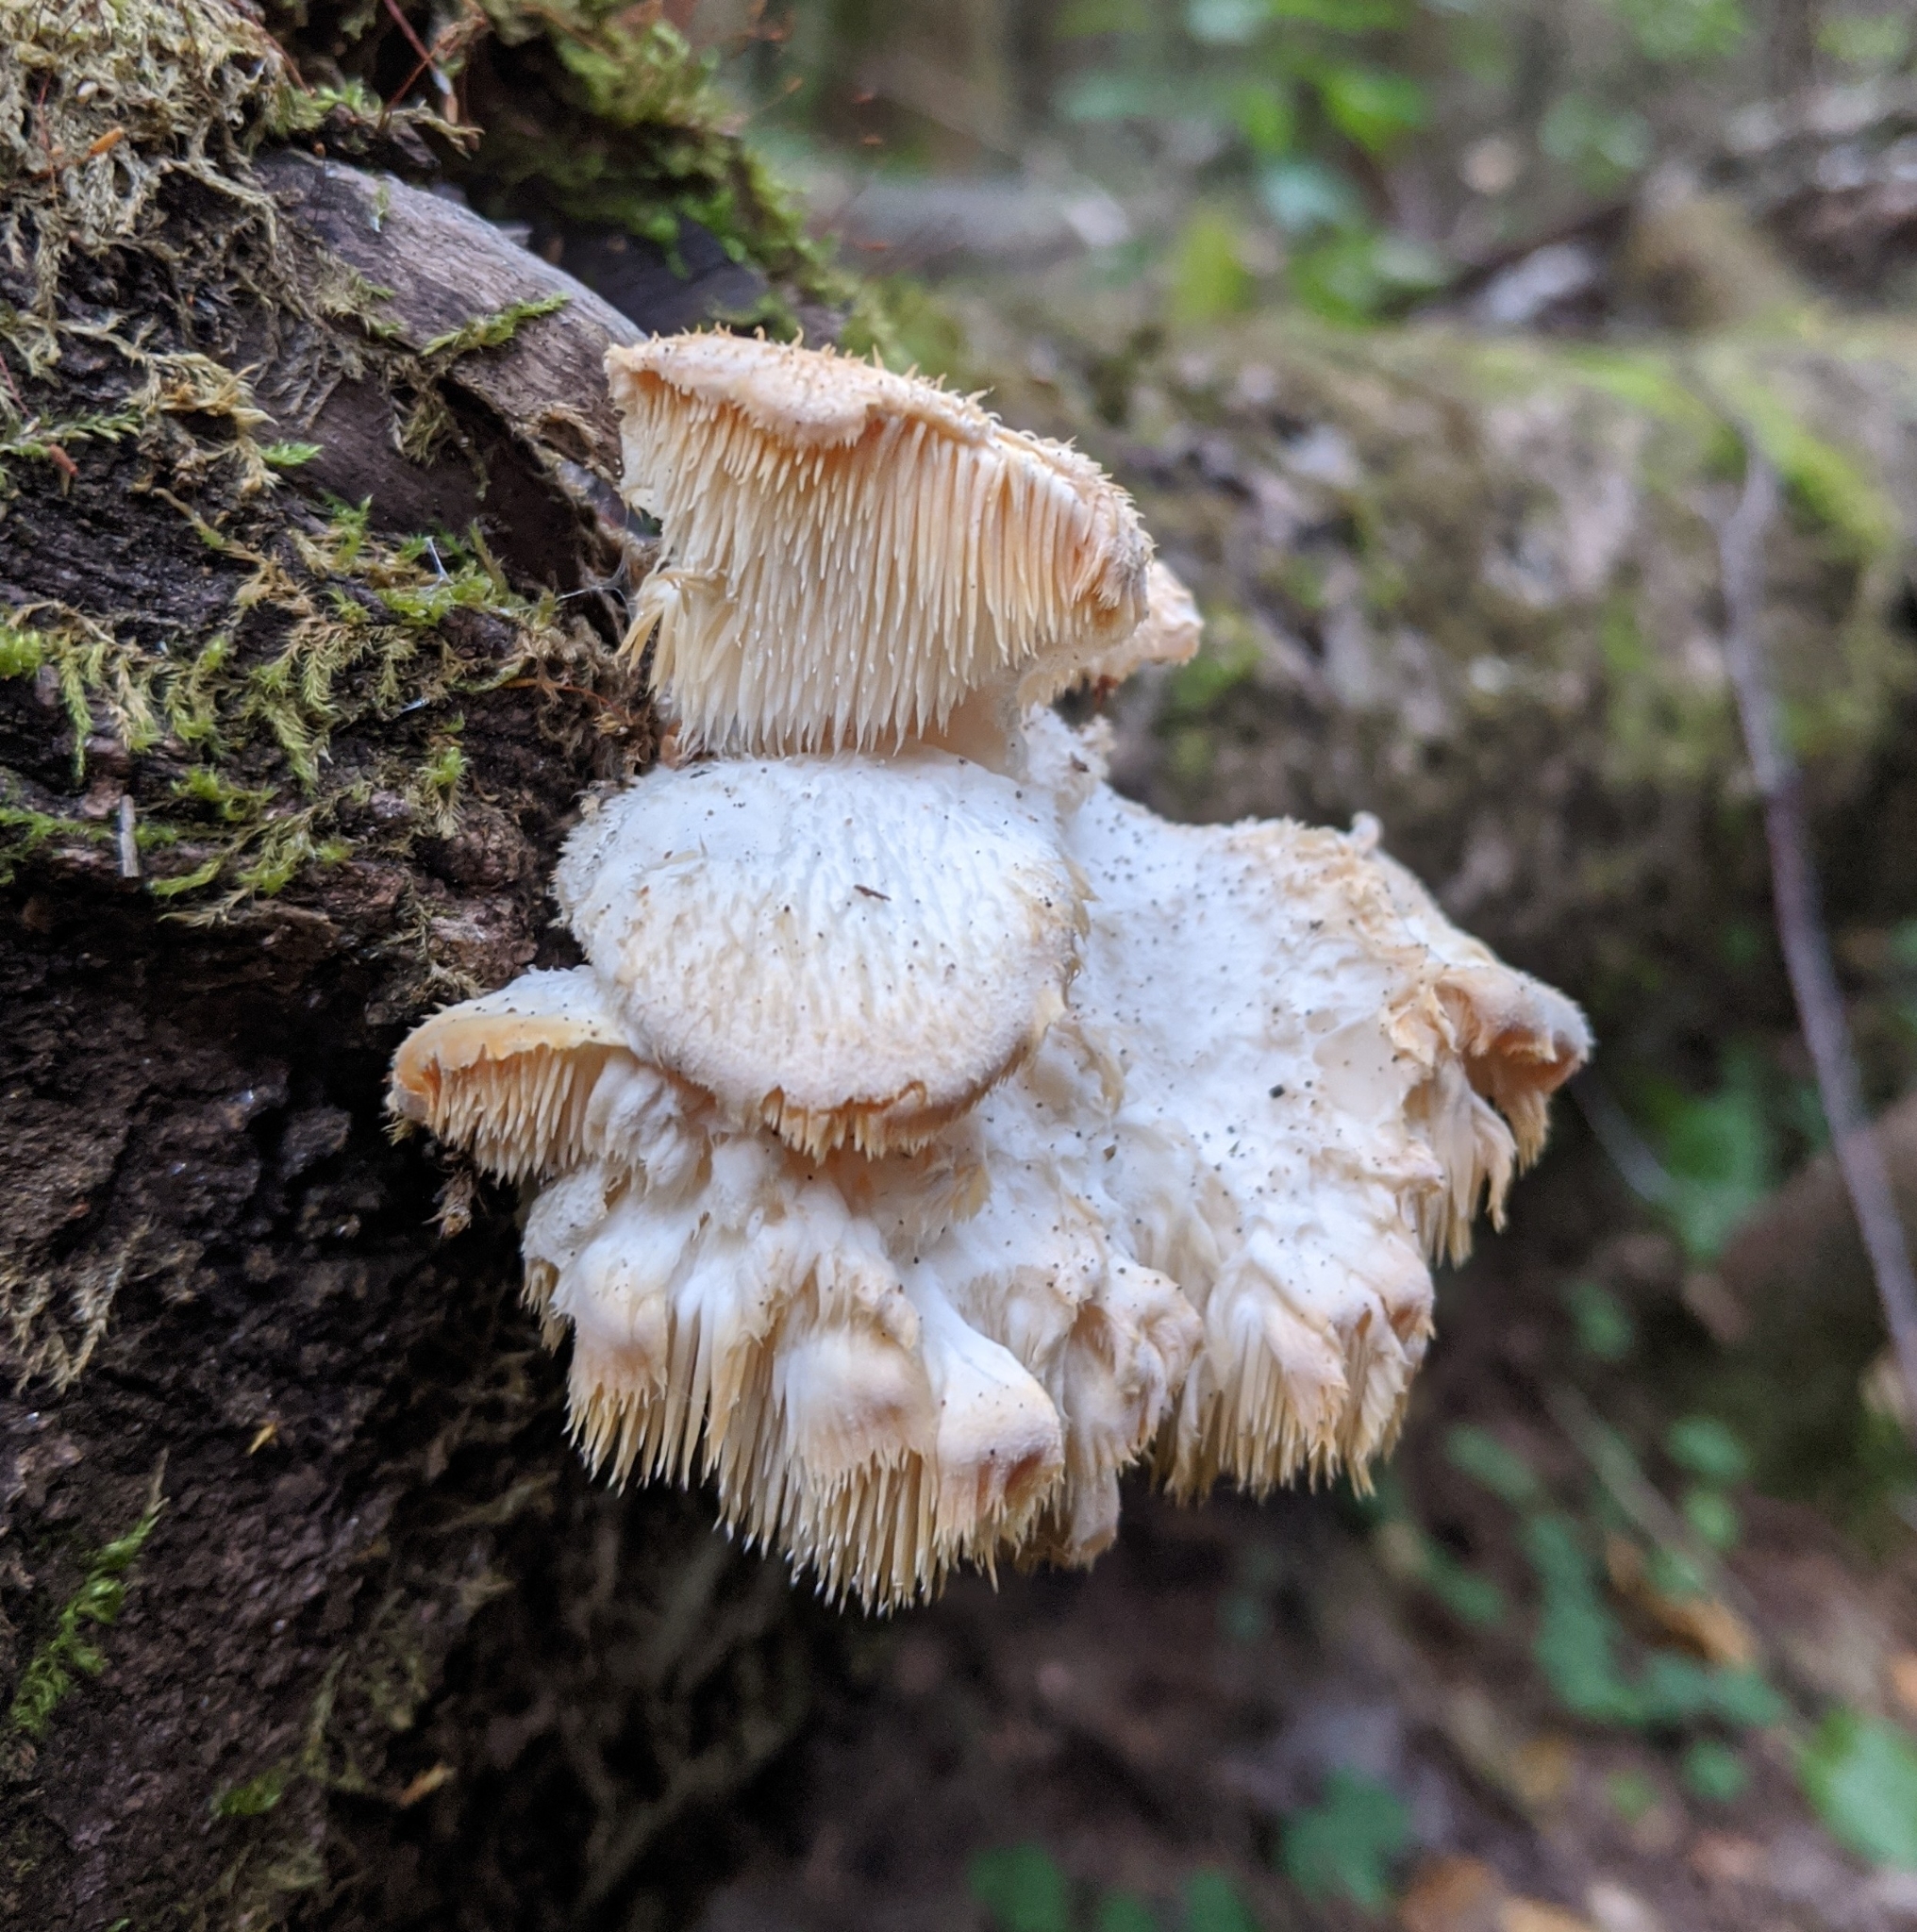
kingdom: Fungi
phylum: Basidiomycota
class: Agaricomycetes
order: Russulales
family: Hericiaceae
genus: Hericium
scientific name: Hericium cirrhatum
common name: Tiered tooth
